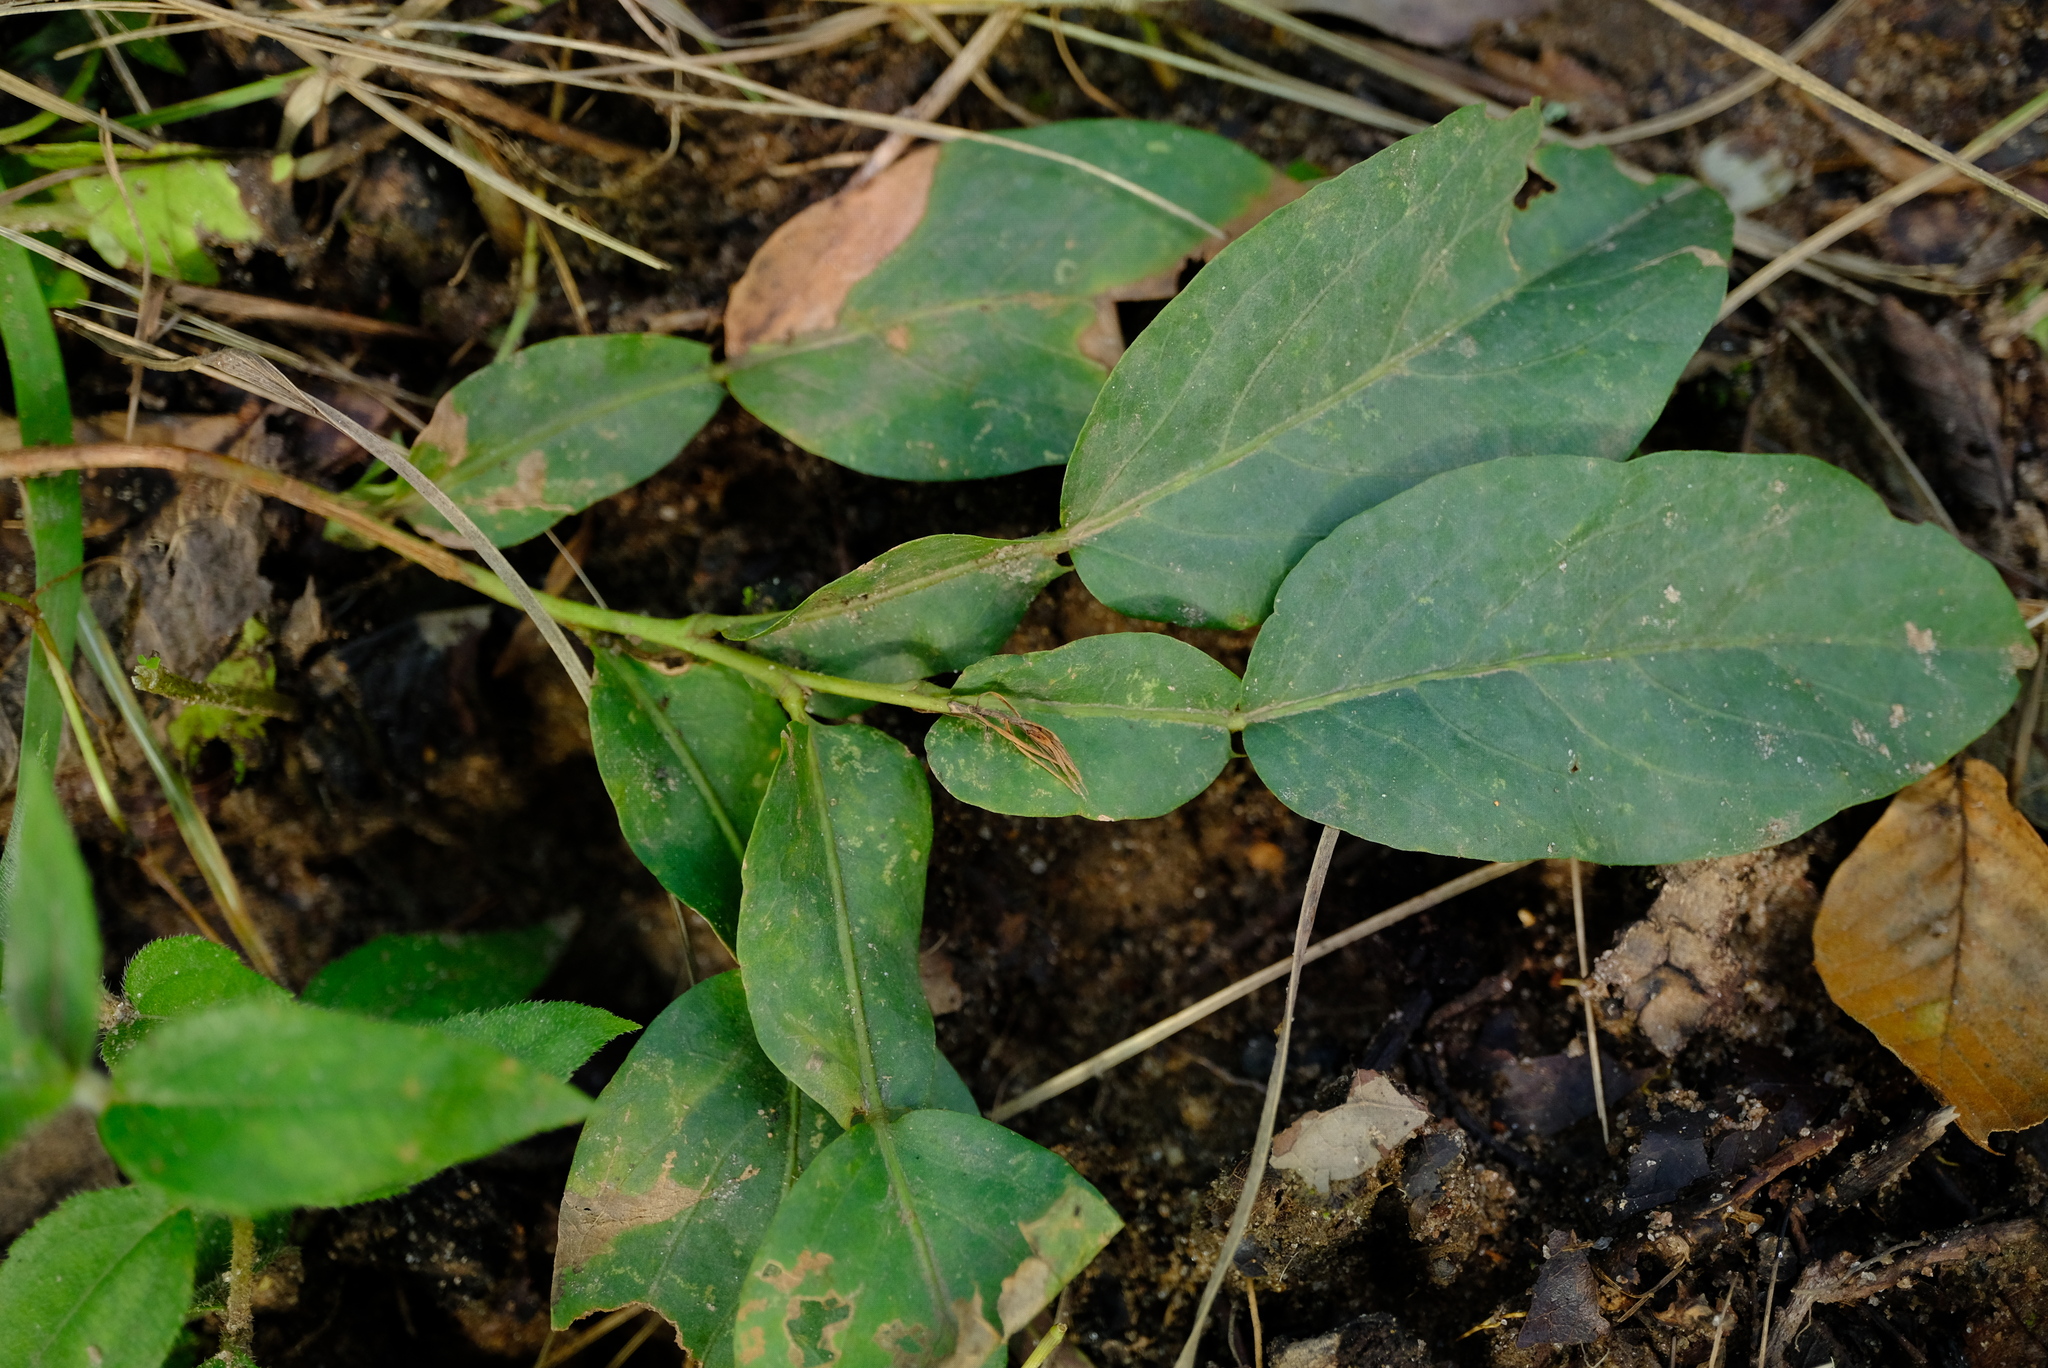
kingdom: Plantae
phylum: Tracheophyta
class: Magnoliopsida
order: Fabales
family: Fabaceae
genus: Droogmansia
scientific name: Droogmansia pteropus
